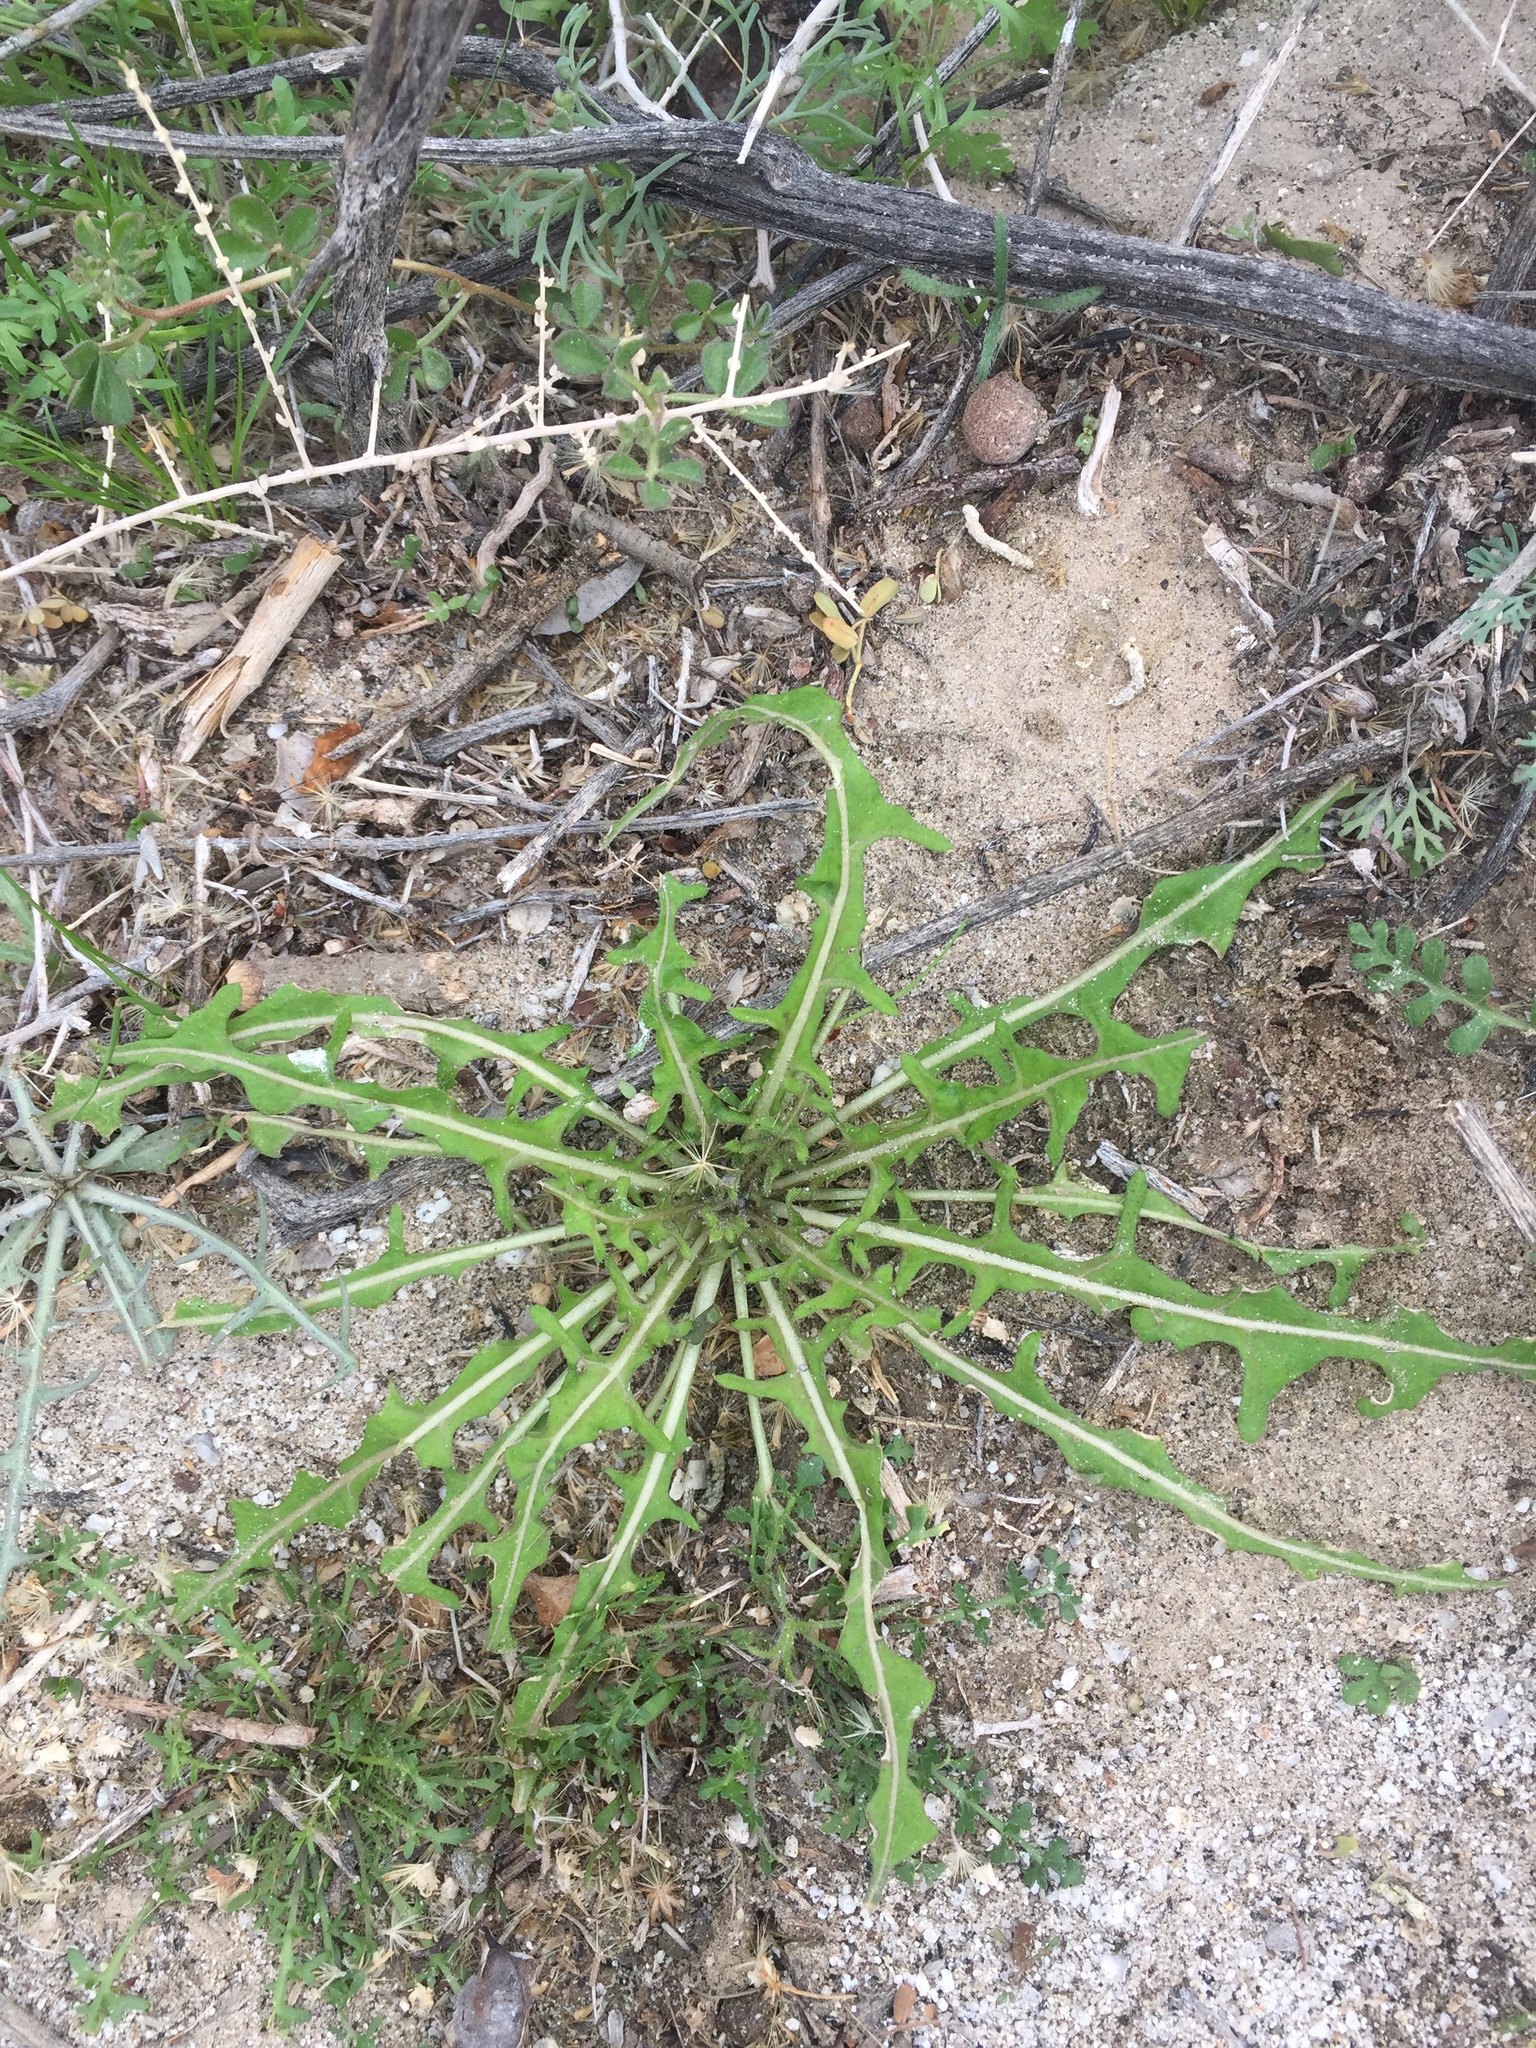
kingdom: Plantae
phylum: Tracheophyta
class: Magnoliopsida
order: Brassicales
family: Brassicaceae
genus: Streptanthus
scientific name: Streptanthus lasiophyllus
